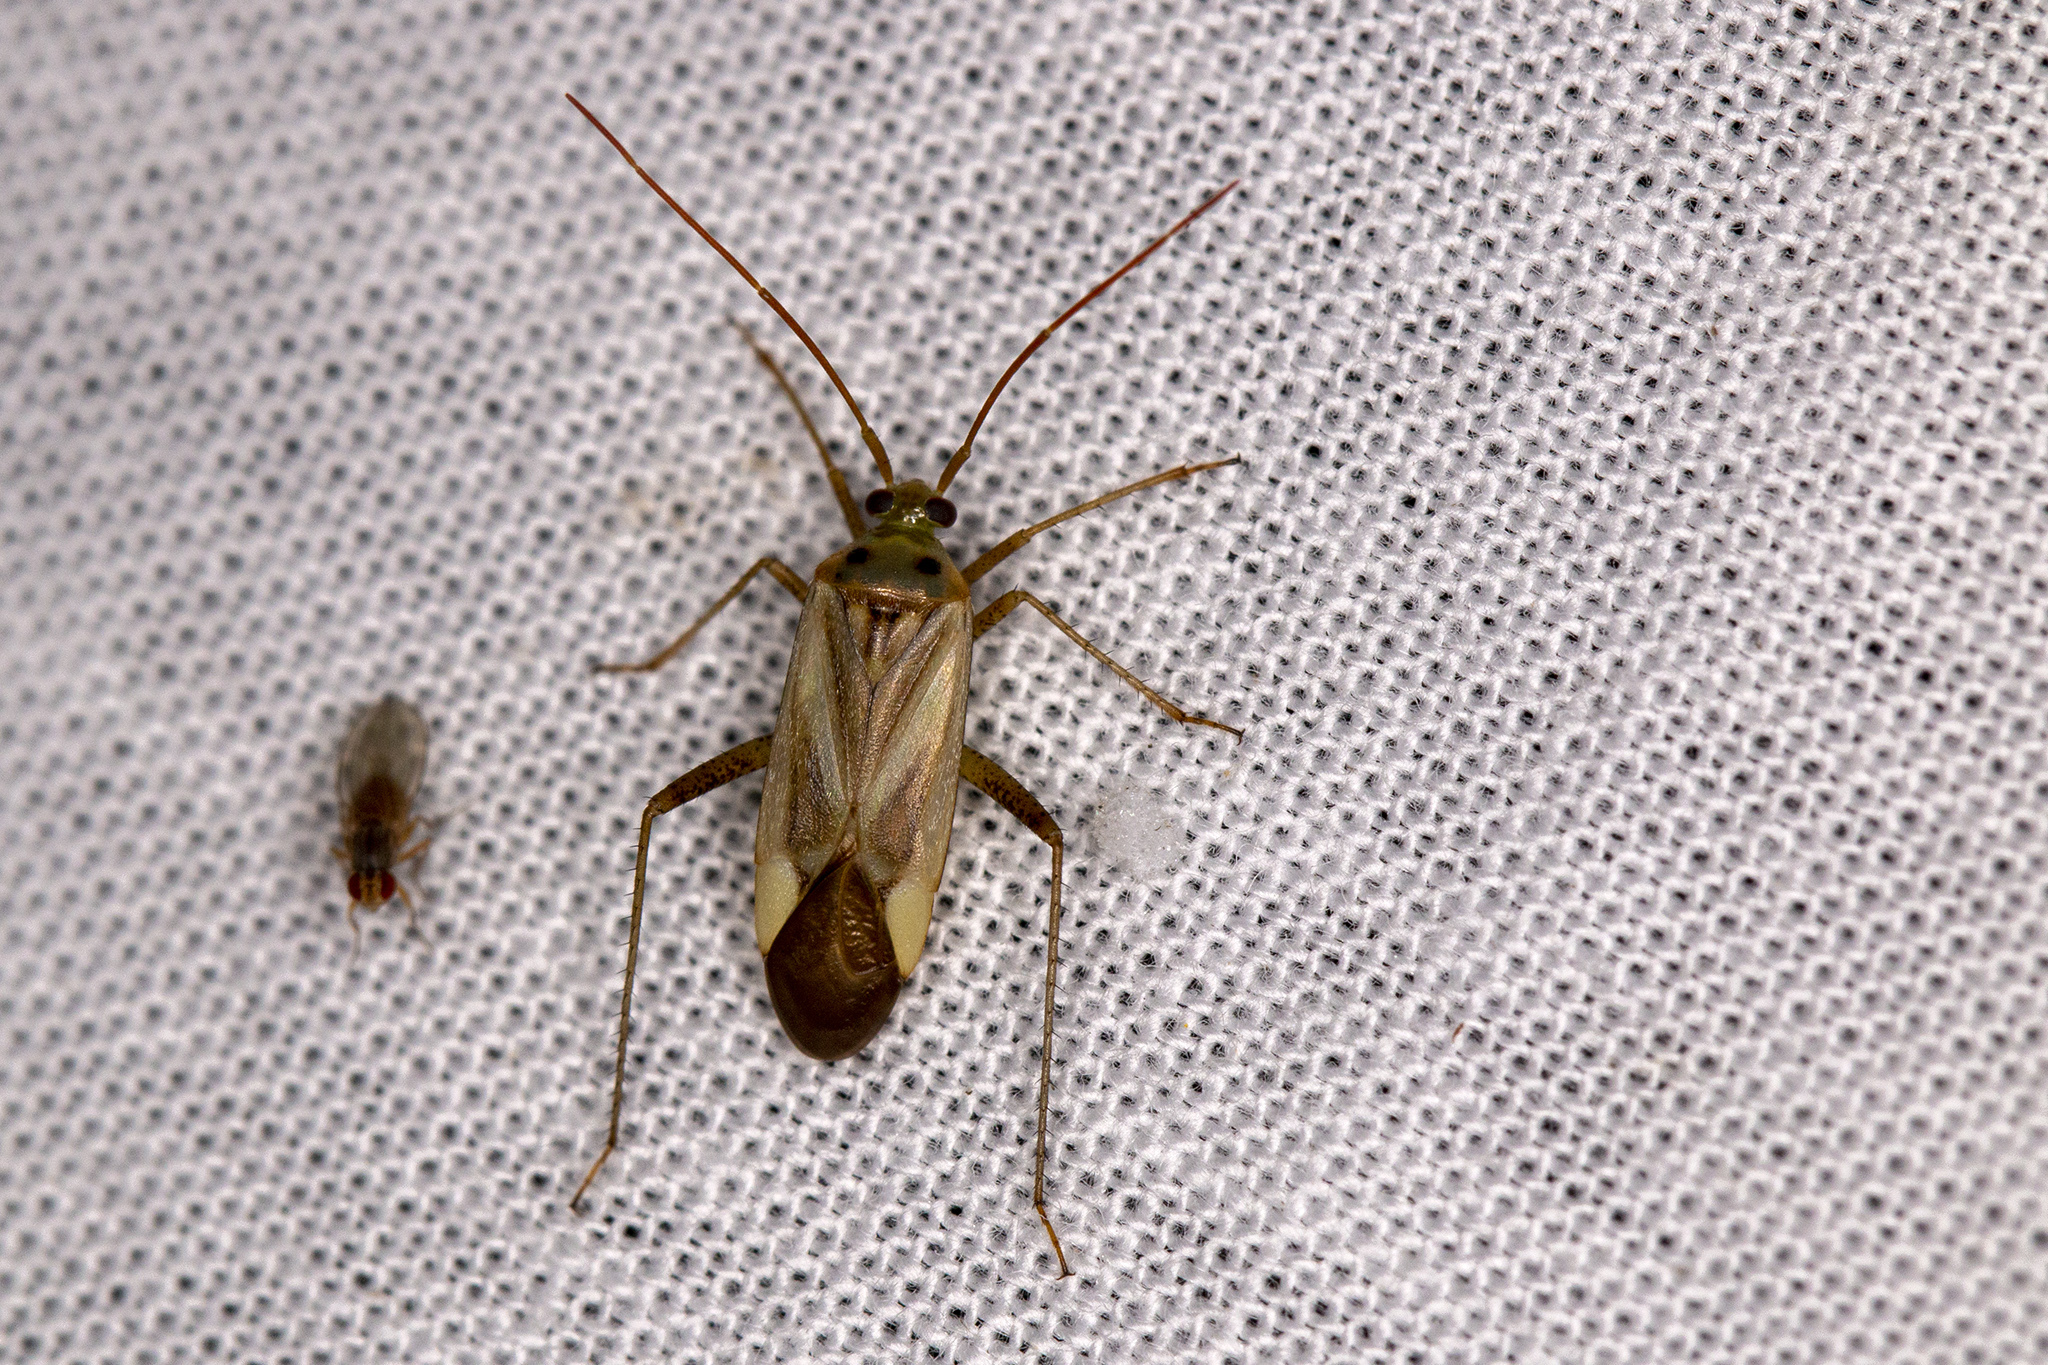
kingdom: Animalia
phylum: Arthropoda
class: Insecta
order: Hemiptera
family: Miridae
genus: Adelphocoris
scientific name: Adelphocoris lineolatus
